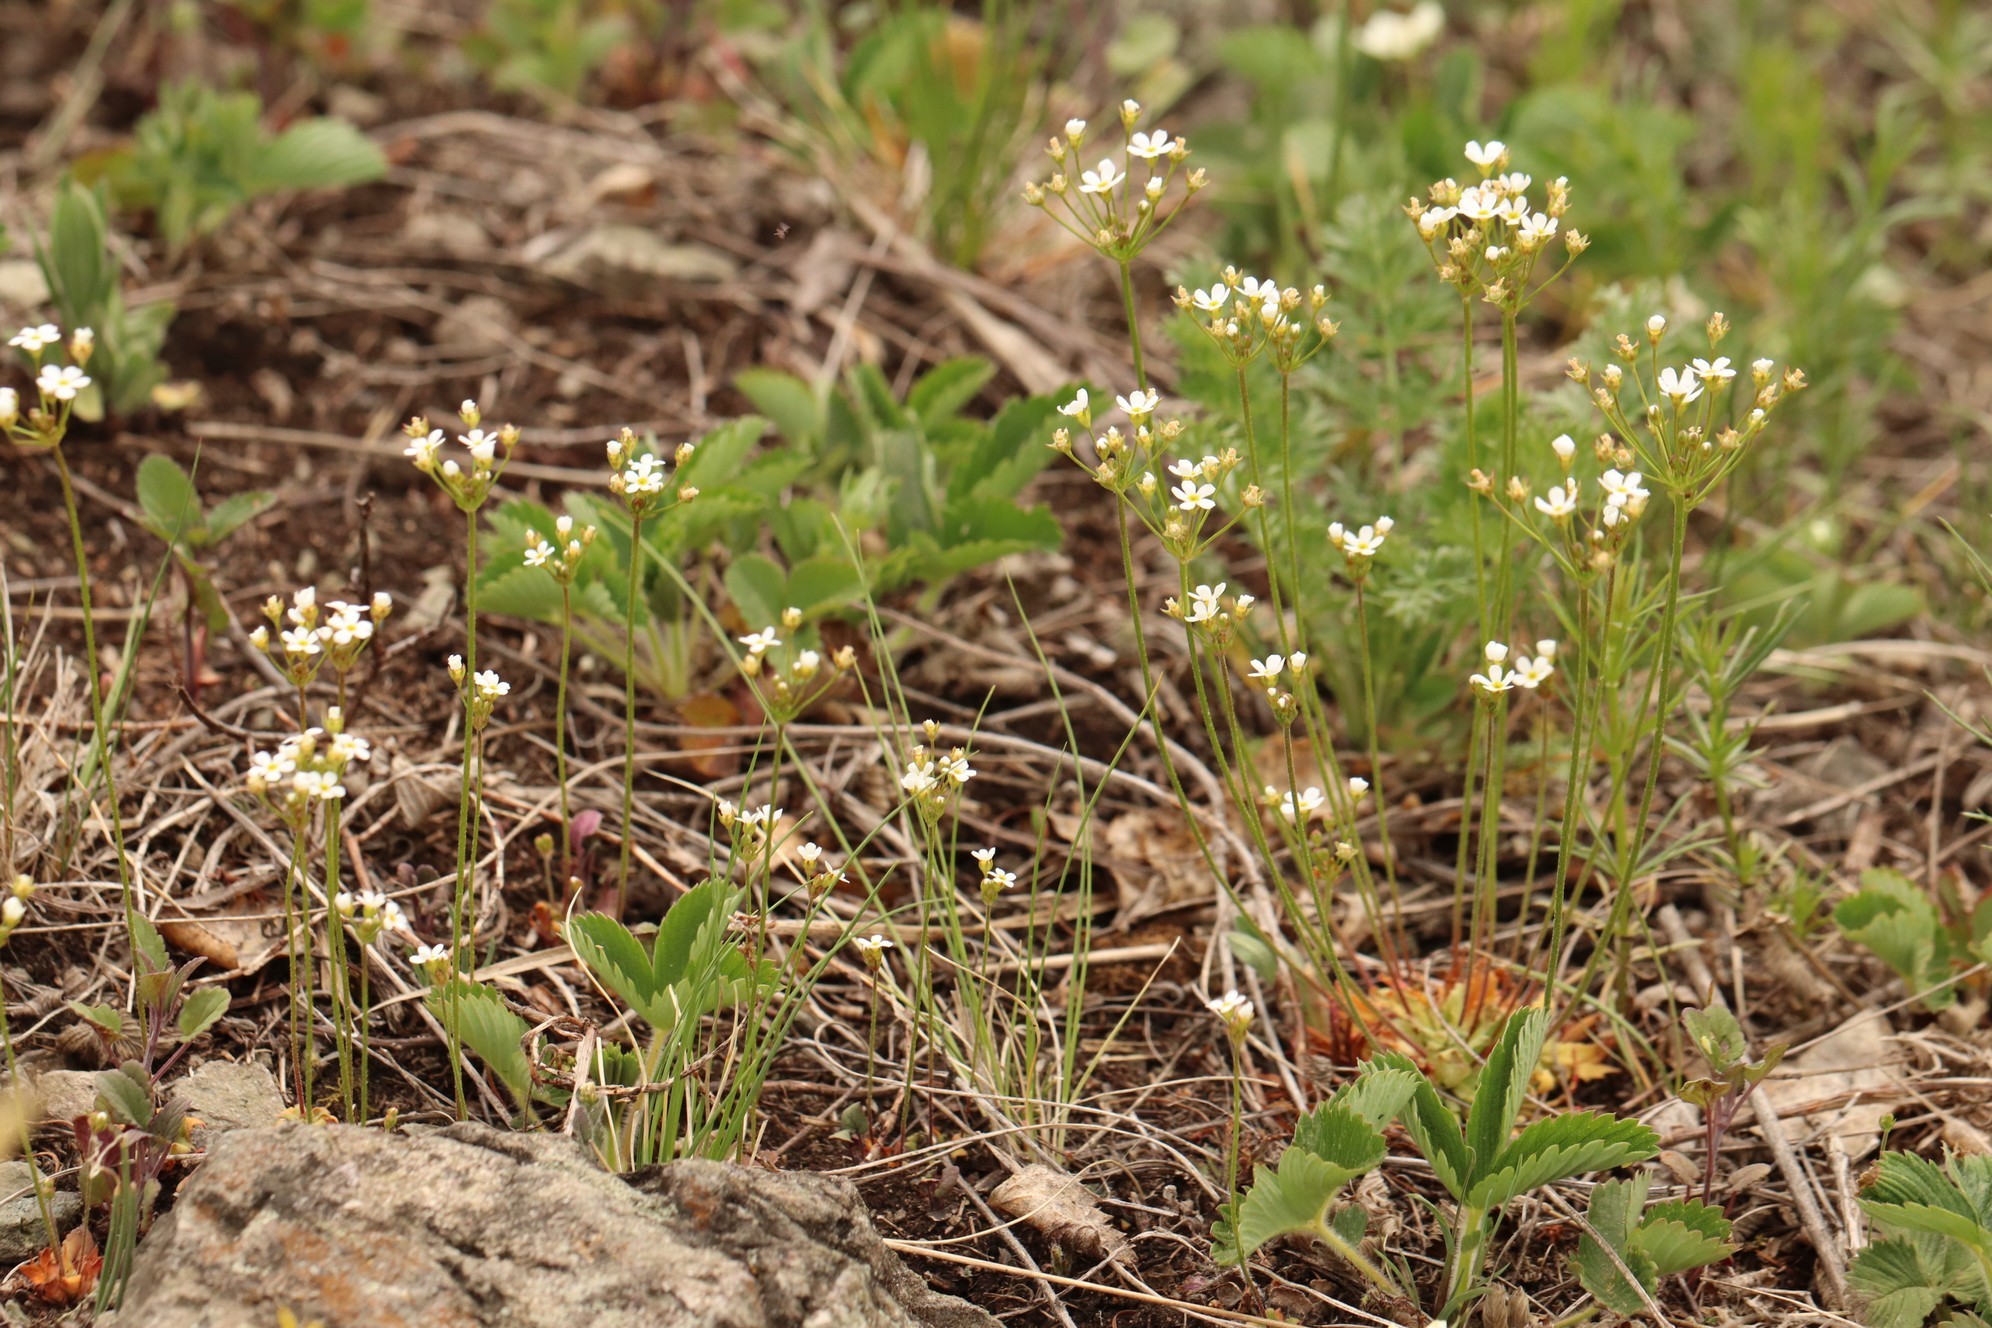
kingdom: Plantae
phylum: Tracheophyta
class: Magnoliopsida
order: Ericales
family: Primulaceae
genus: Androsace
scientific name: Androsace septentrionalis
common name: Hairy northern fairy-candelabra
